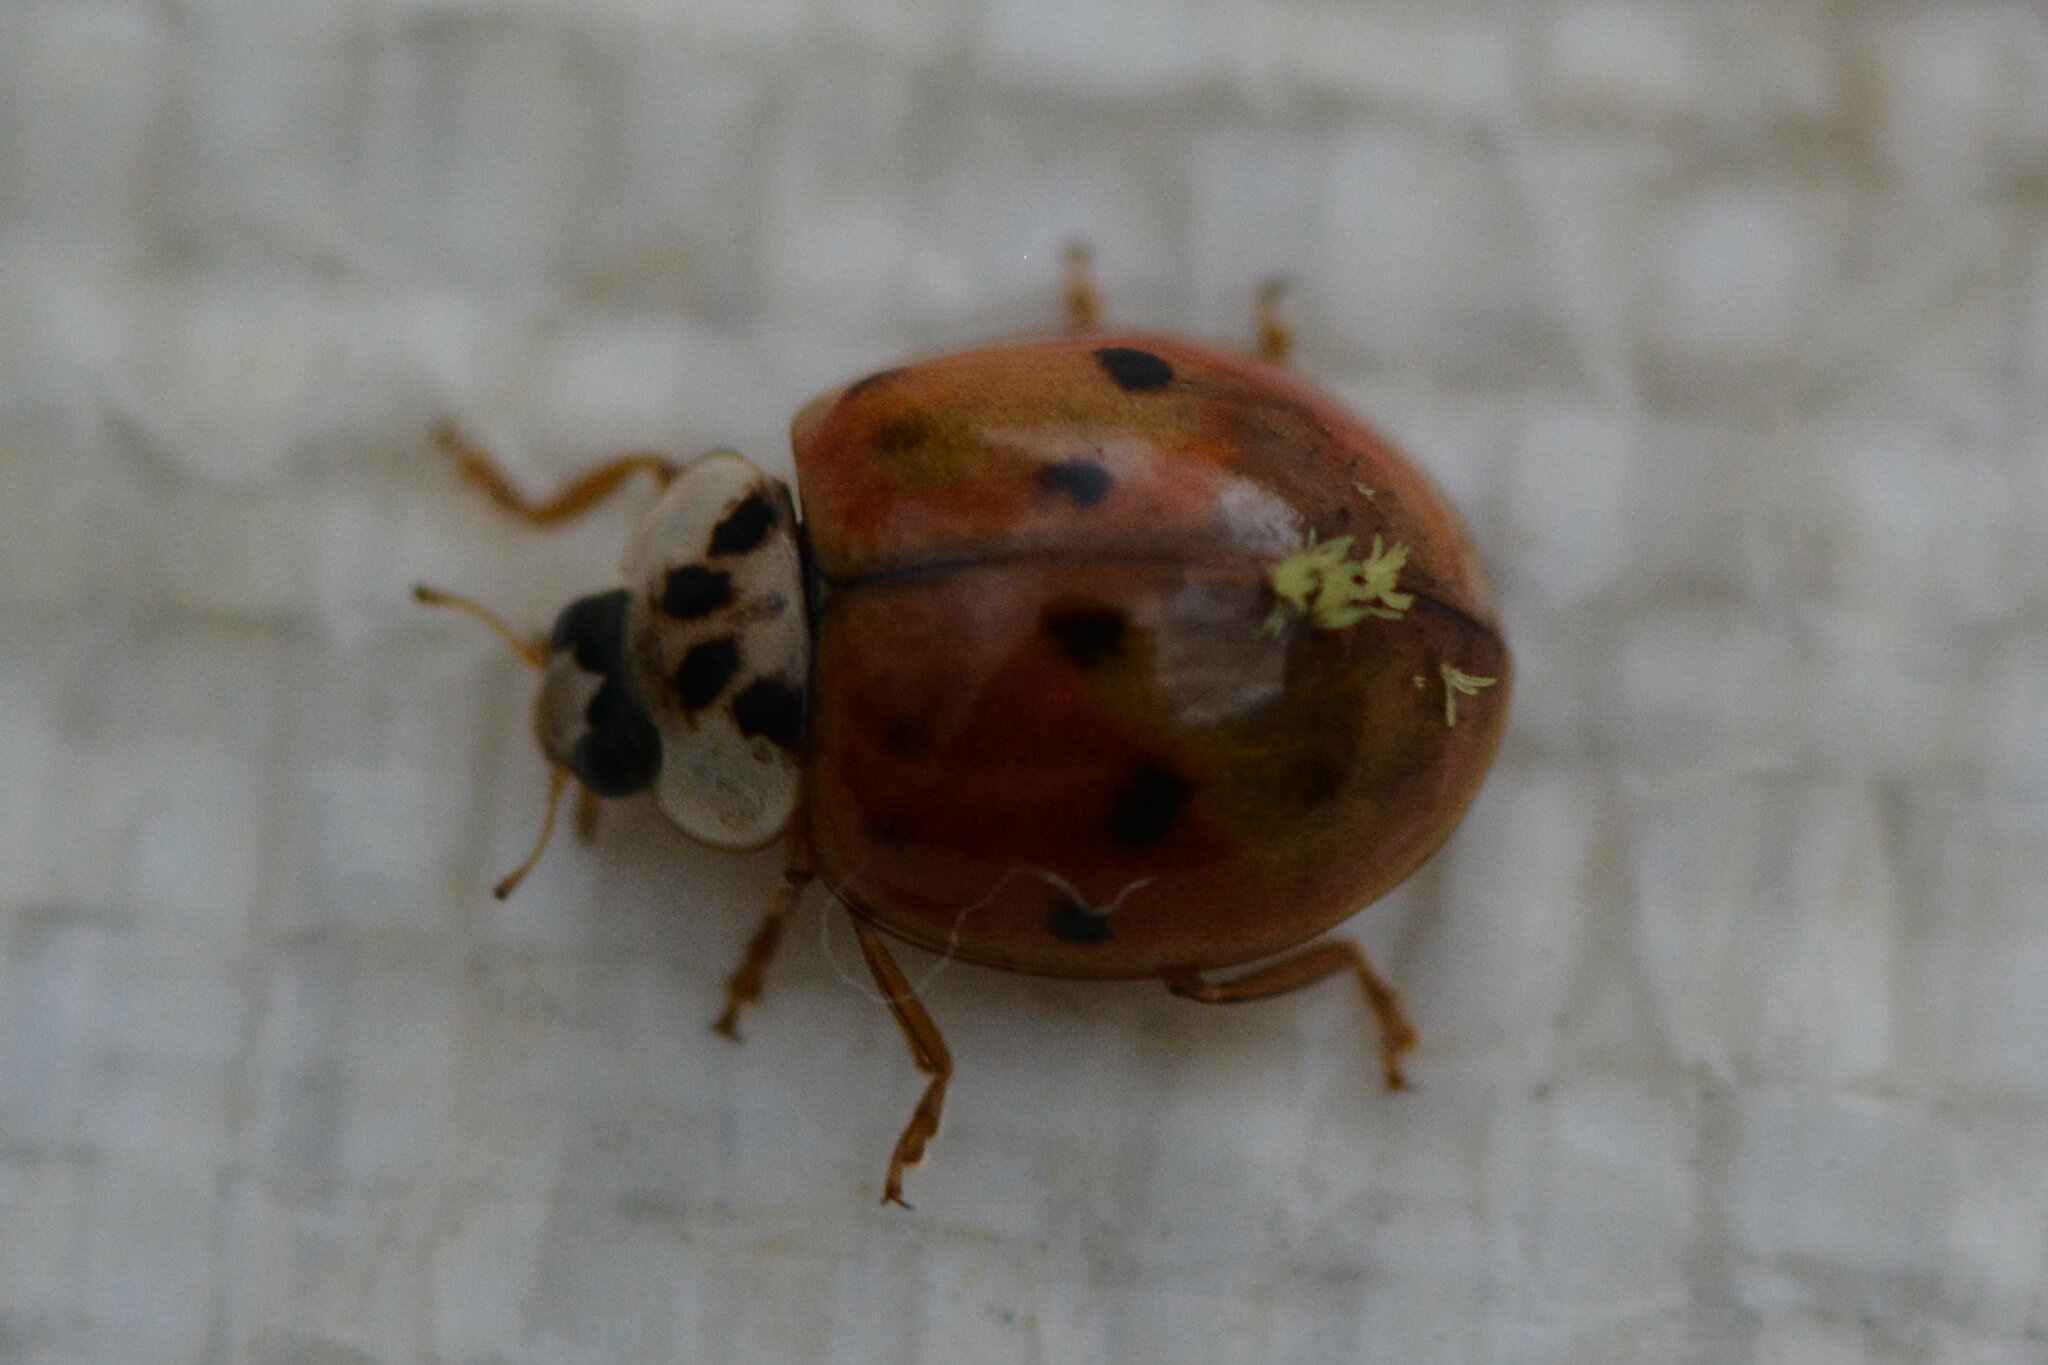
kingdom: Animalia
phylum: Arthropoda
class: Insecta
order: Coleoptera
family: Coccinellidae
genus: Harmonia
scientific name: Harmonia axyridis
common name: Harlequin ladybird
